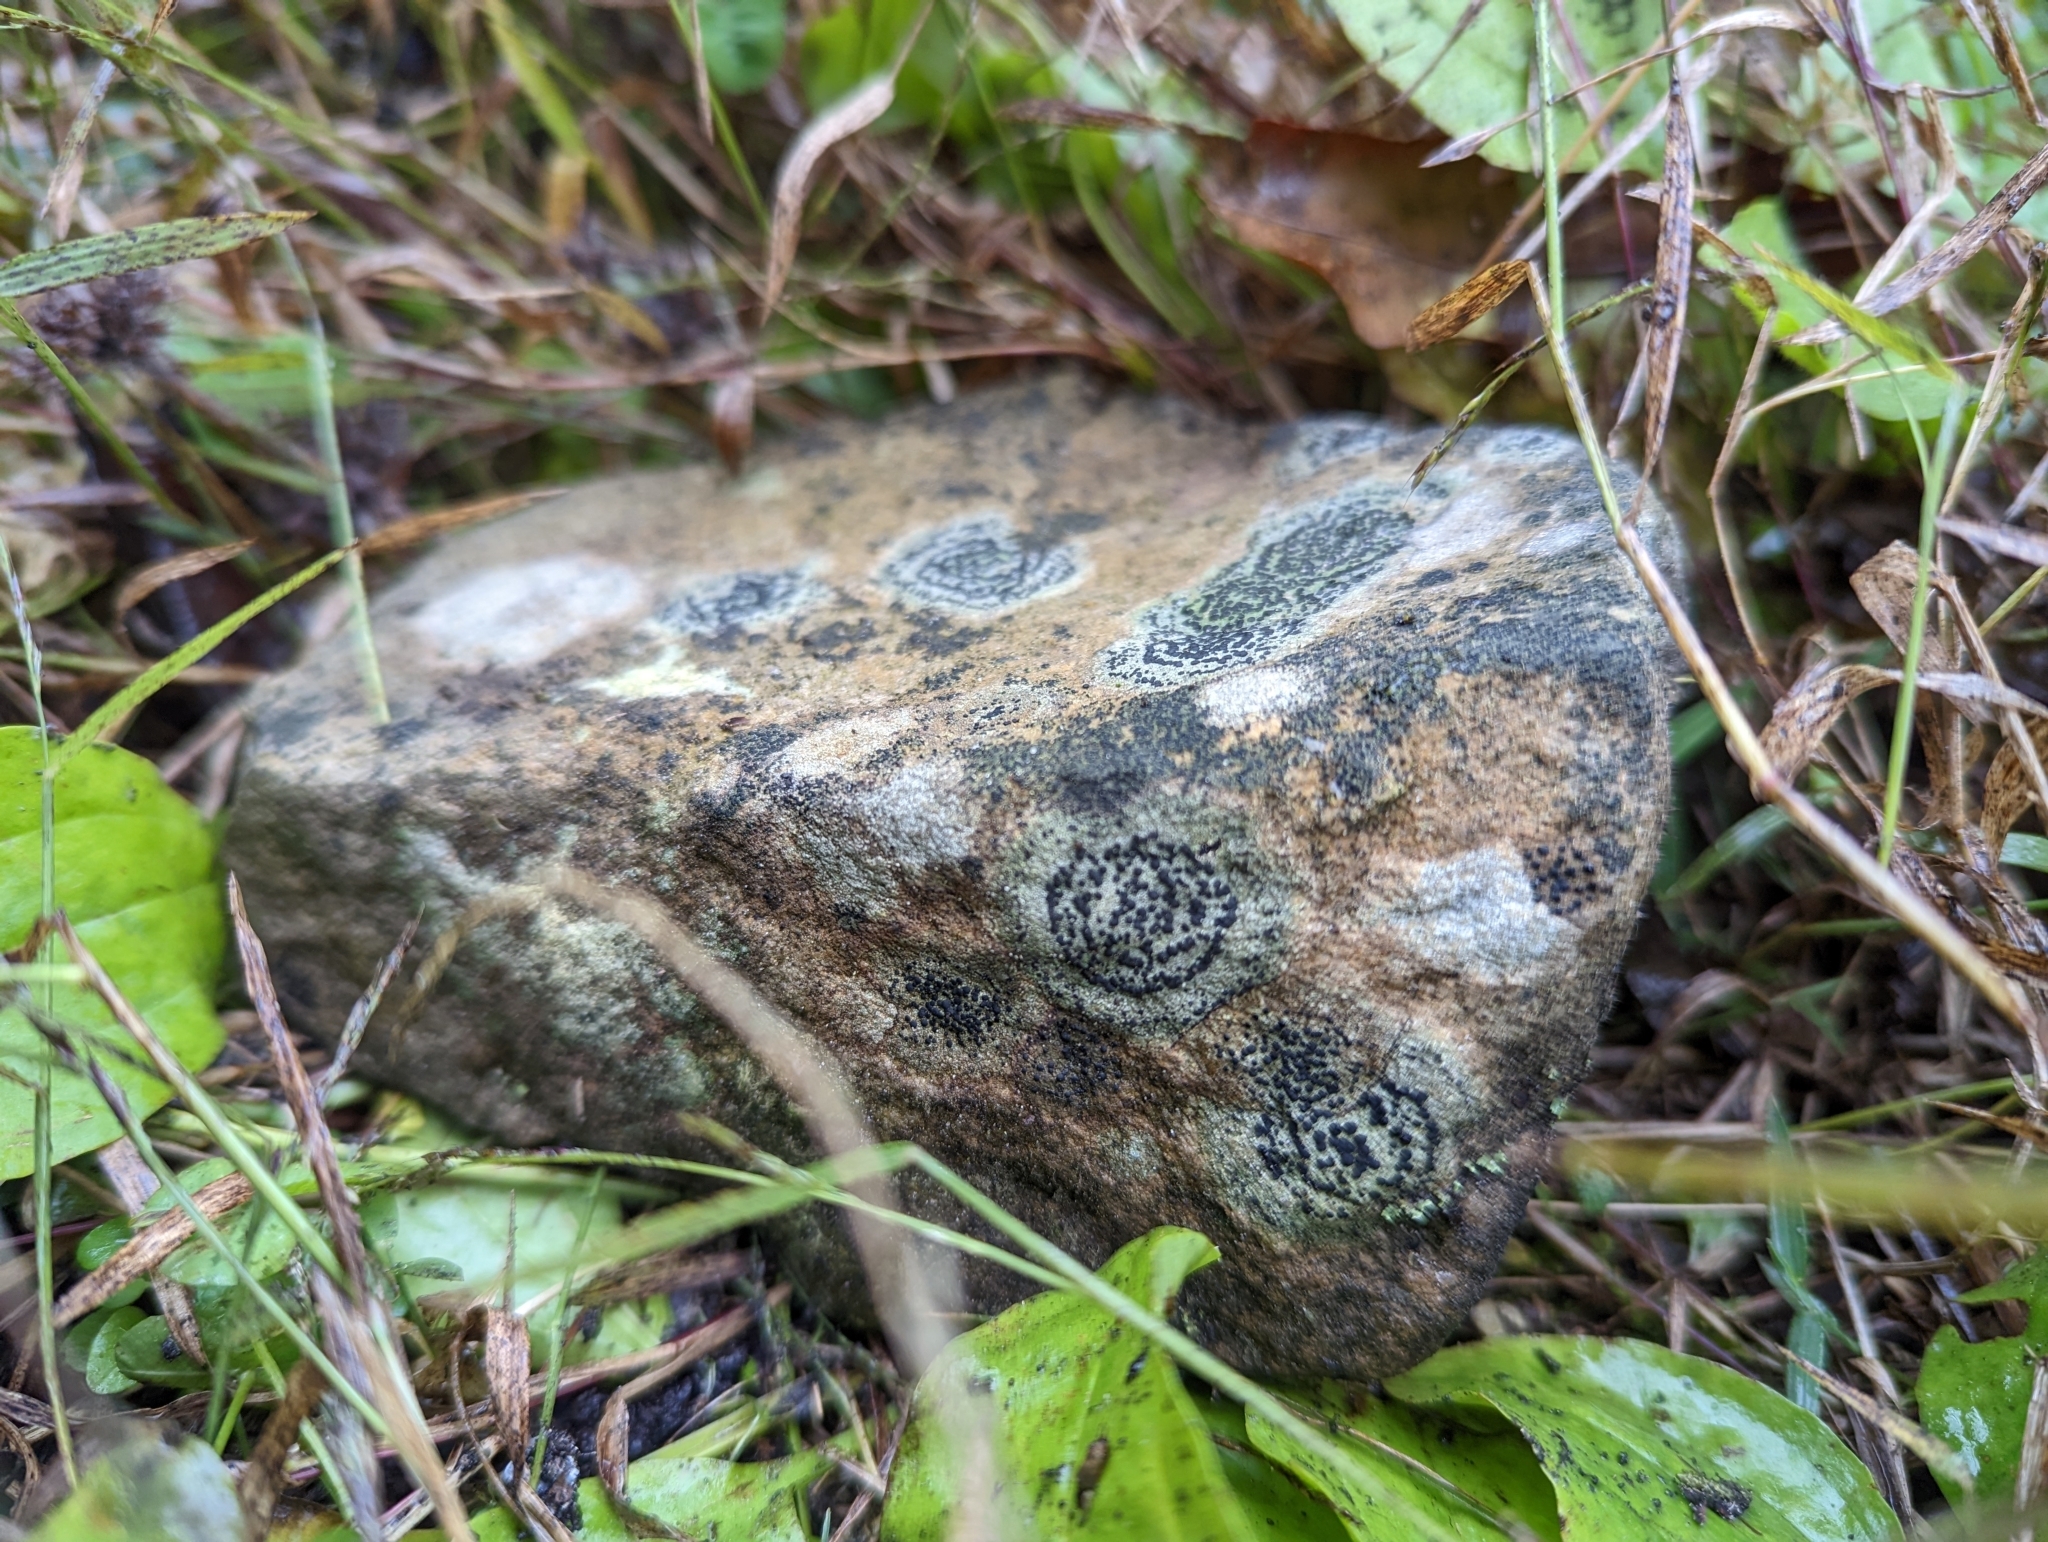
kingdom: Fungi
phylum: Ascomycota
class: Lecanoromycetes
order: Lecideales
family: Lecideaceae
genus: Porpidia
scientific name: Porpidia crustulata
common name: Concentric boulder lichen
